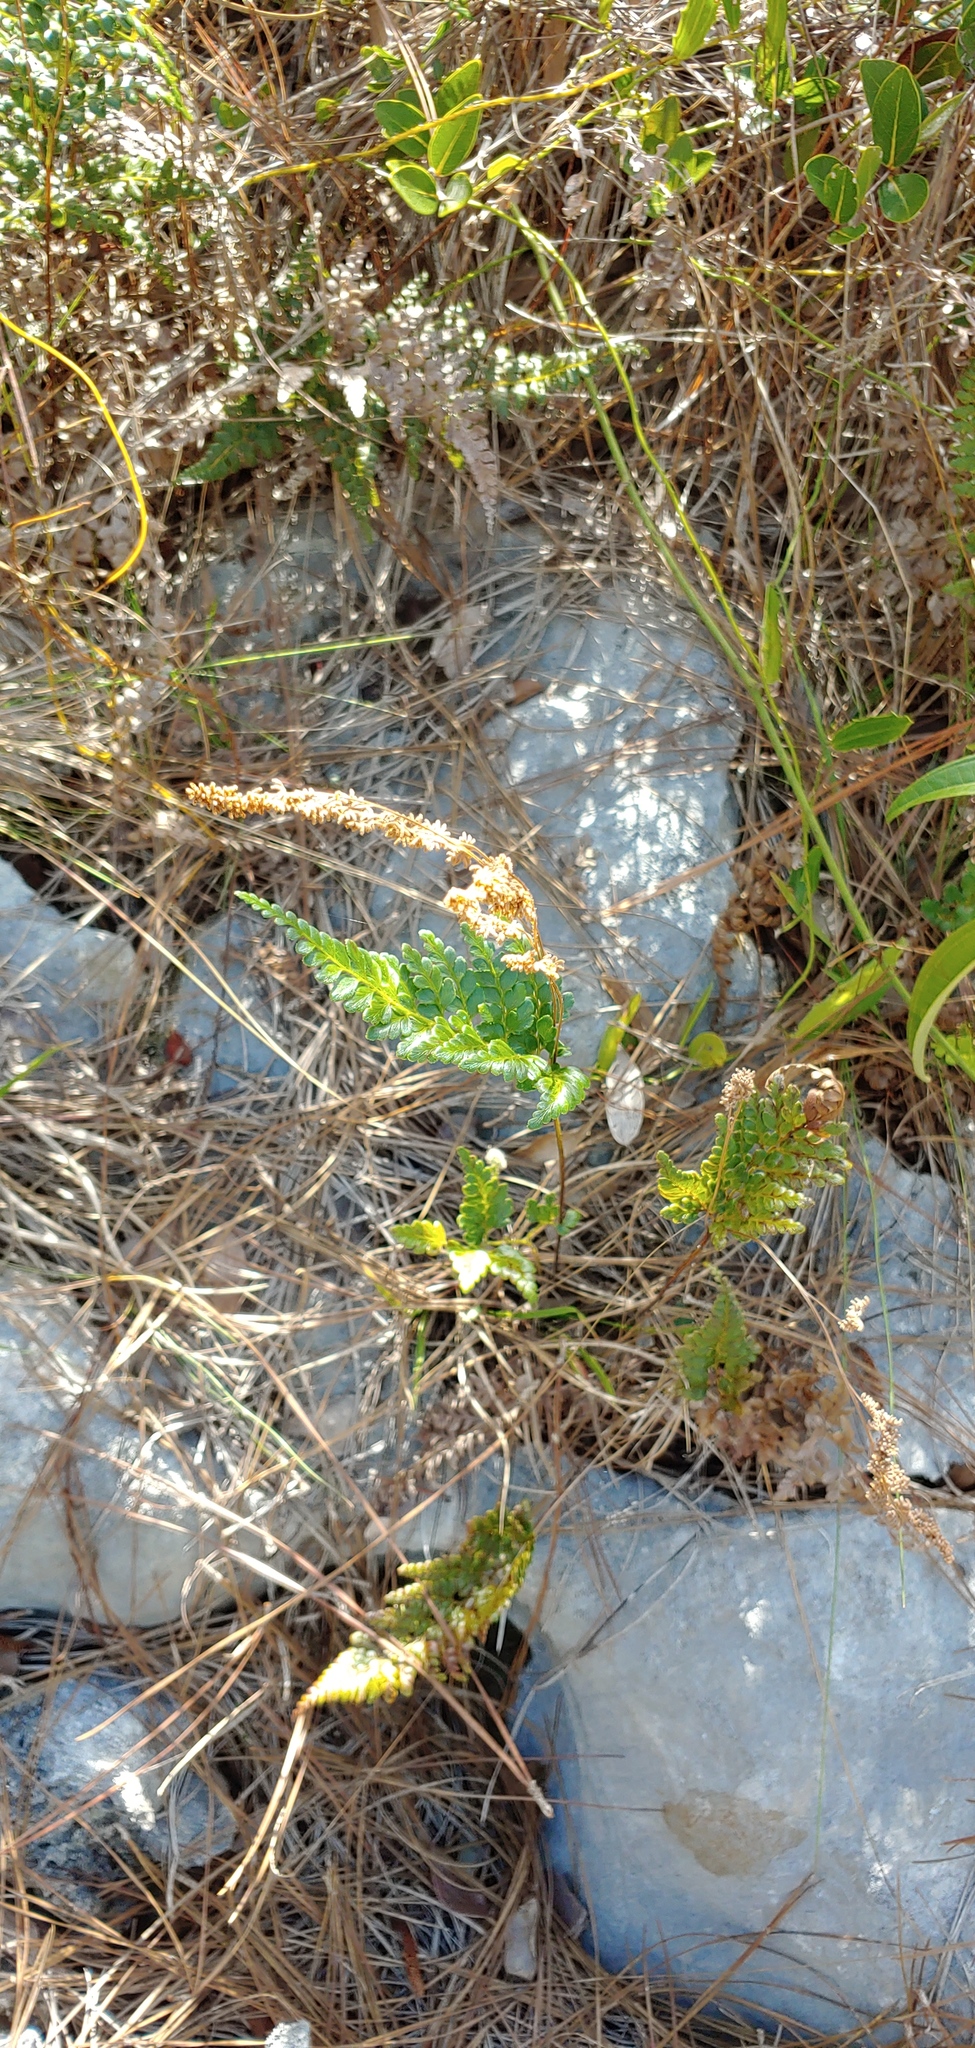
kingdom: Plantae
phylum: Tracheophyta
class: Polypodiopsida
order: Schizaeales
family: Anemiaceae
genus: Anemia
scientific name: Anemia adiantifolia
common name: Pine fern
